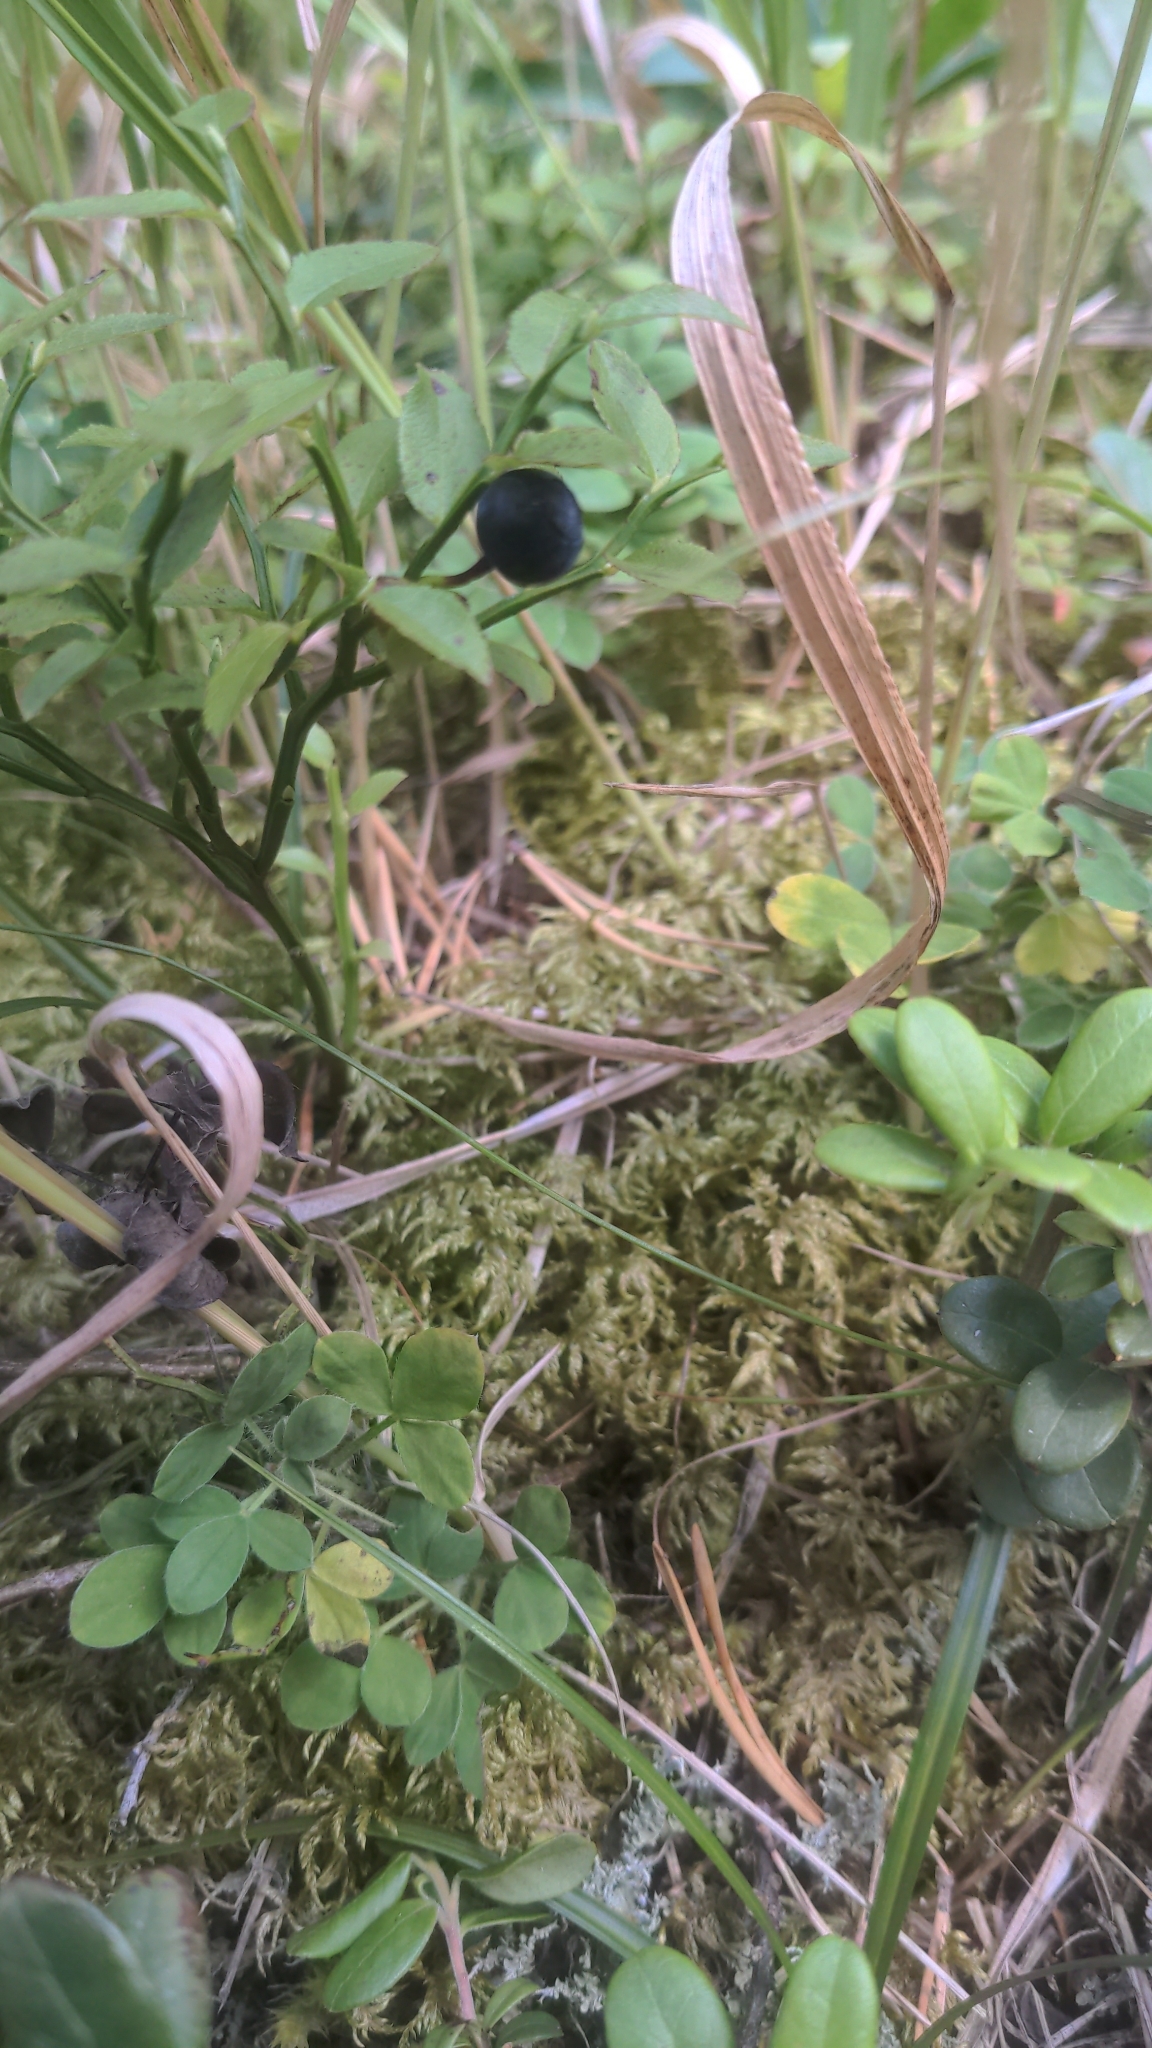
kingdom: Plantae
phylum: Tracheophyta
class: Magnoliopsida
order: Ericales
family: Ericaceae
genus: Vaccinium
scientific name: Vaccinium myrtillus
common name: Bilberry
